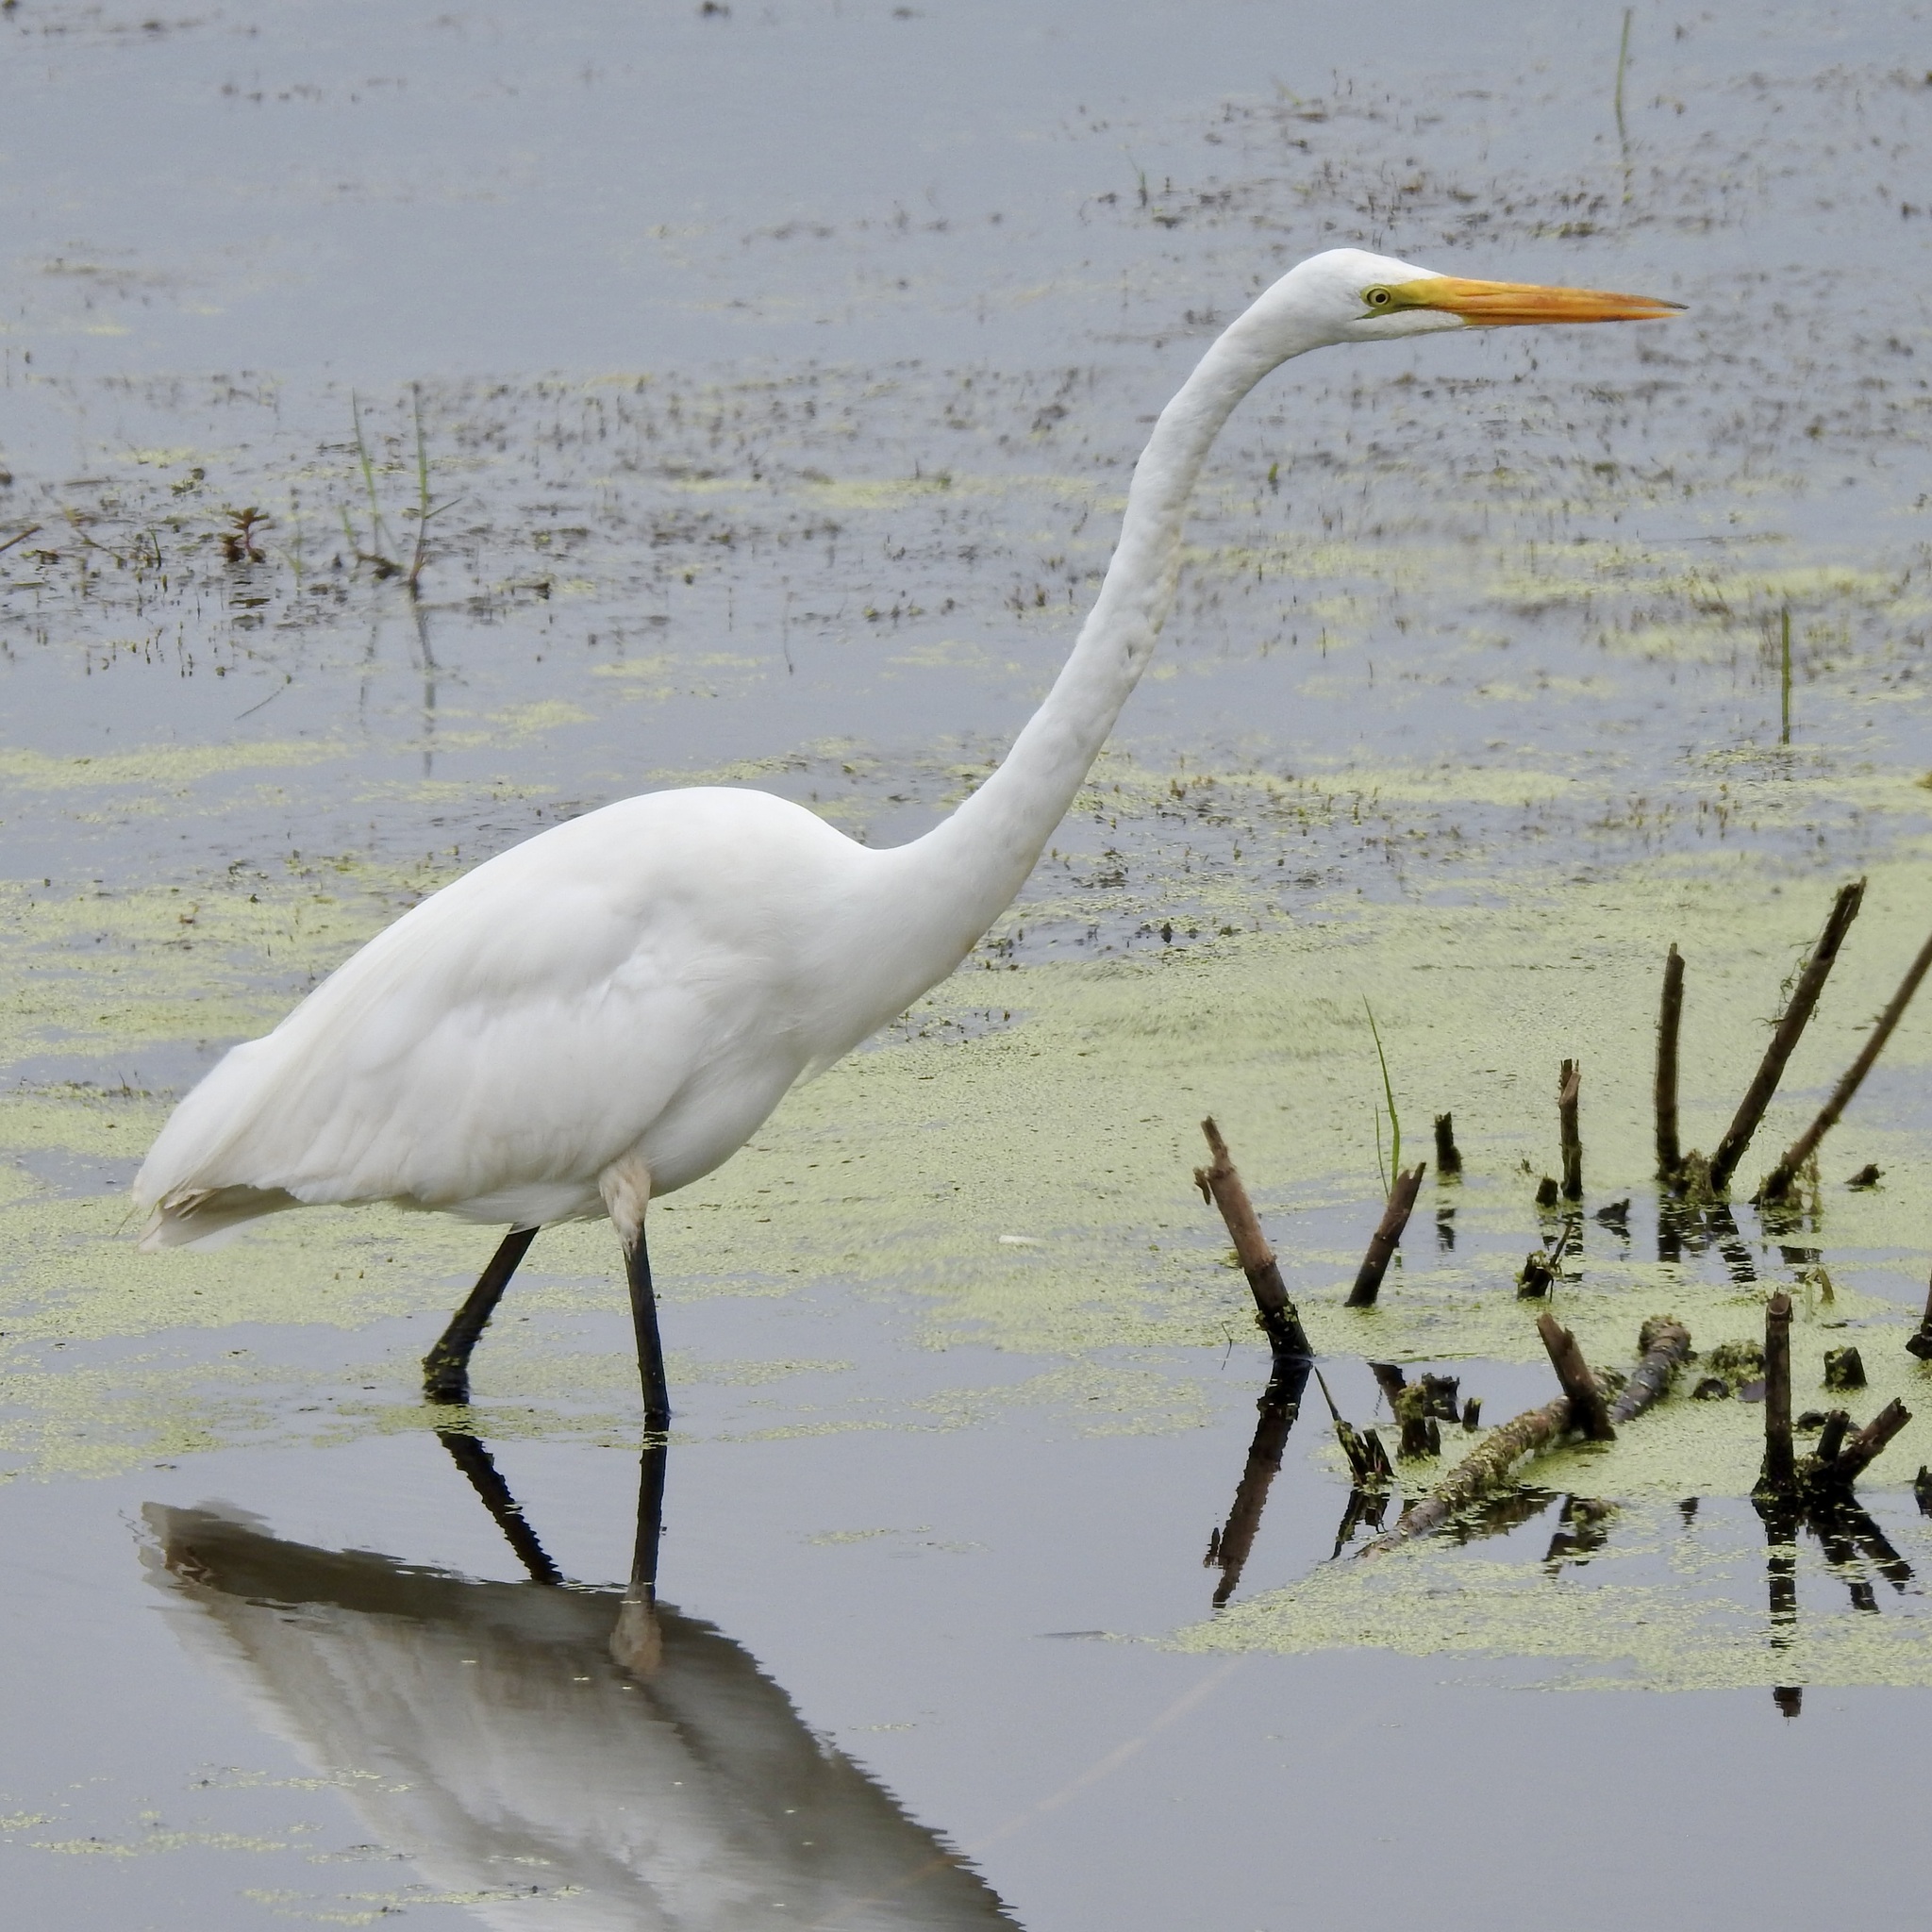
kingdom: Animalia
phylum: Chordata
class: Aves
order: Pelecaniformes
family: Ardeidae
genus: Ardea
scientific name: Ardea alba
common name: Great egret
